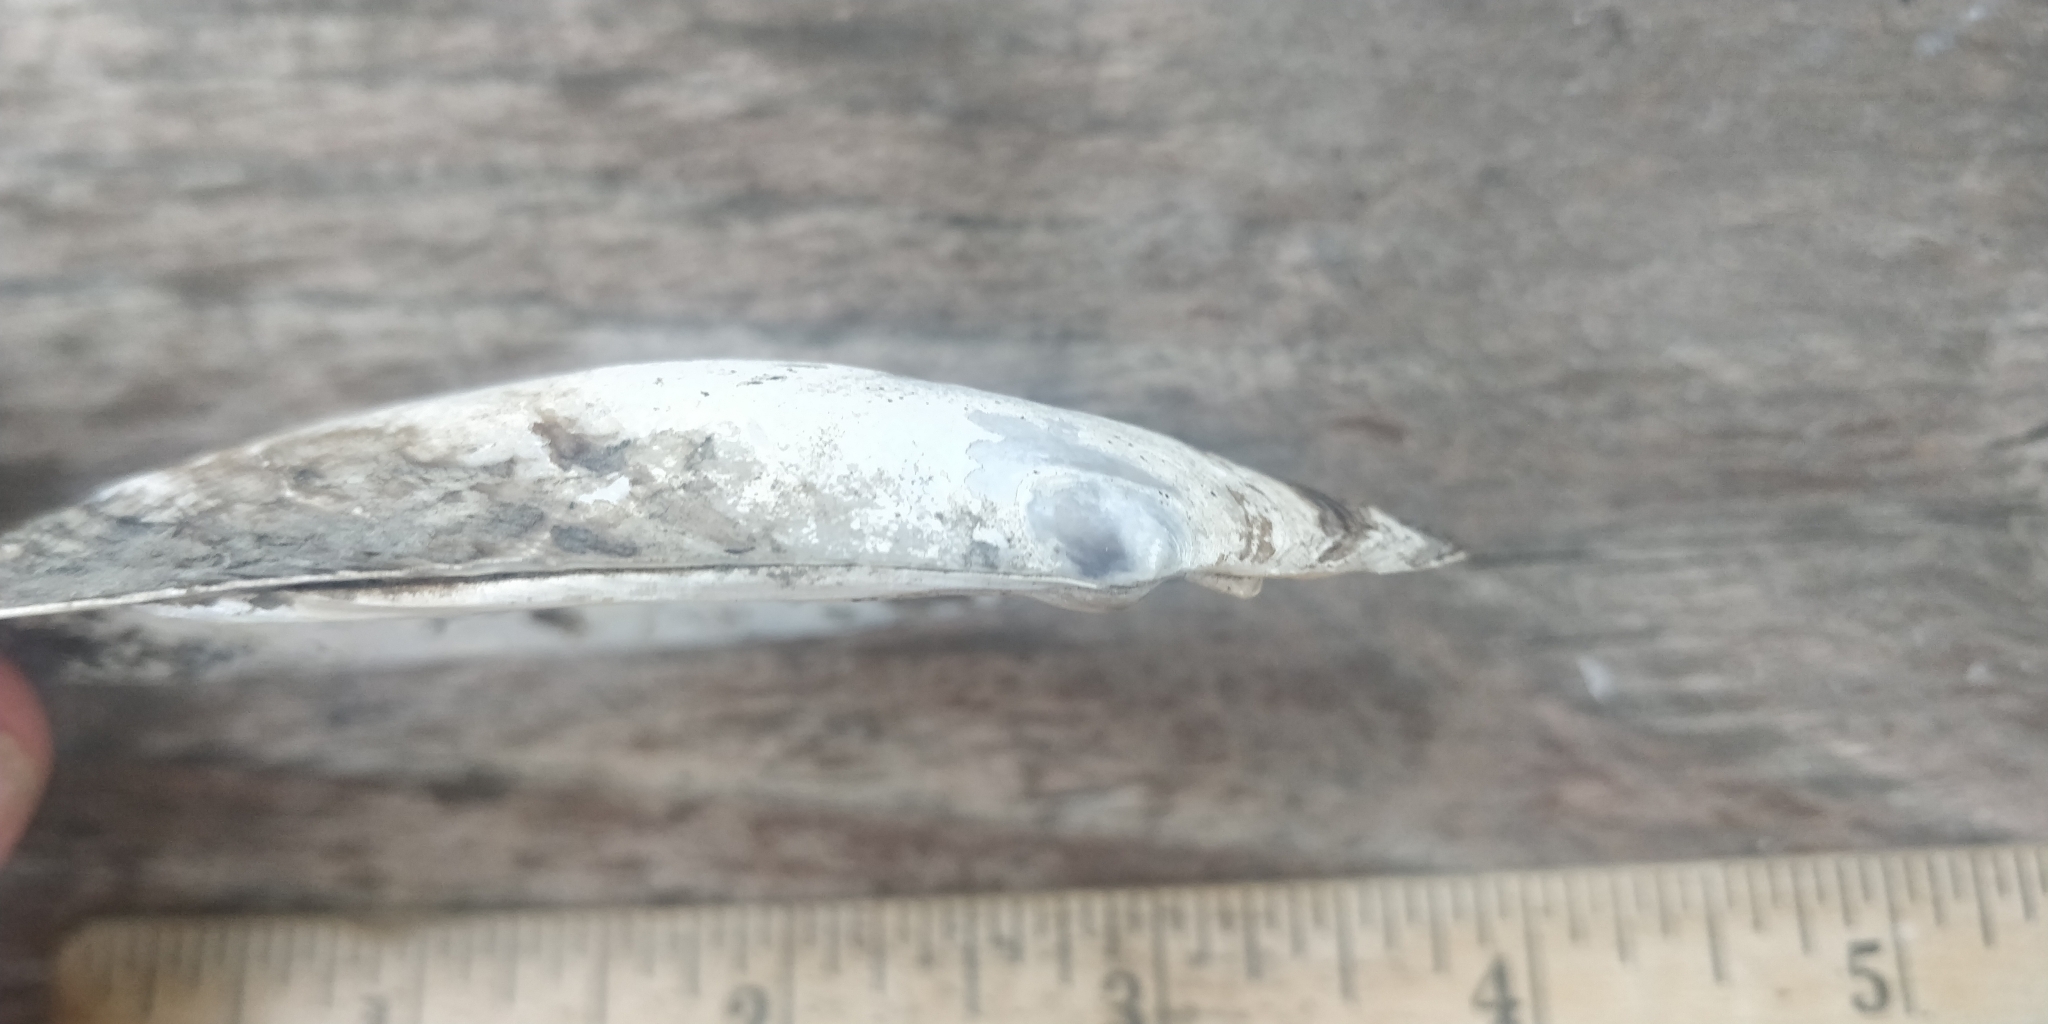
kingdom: Animalia
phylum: Mollusca
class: Bivalvia
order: Unionida
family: Unionidae
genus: Potamilus
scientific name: Potamilus fragilis
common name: Fragile papershell
